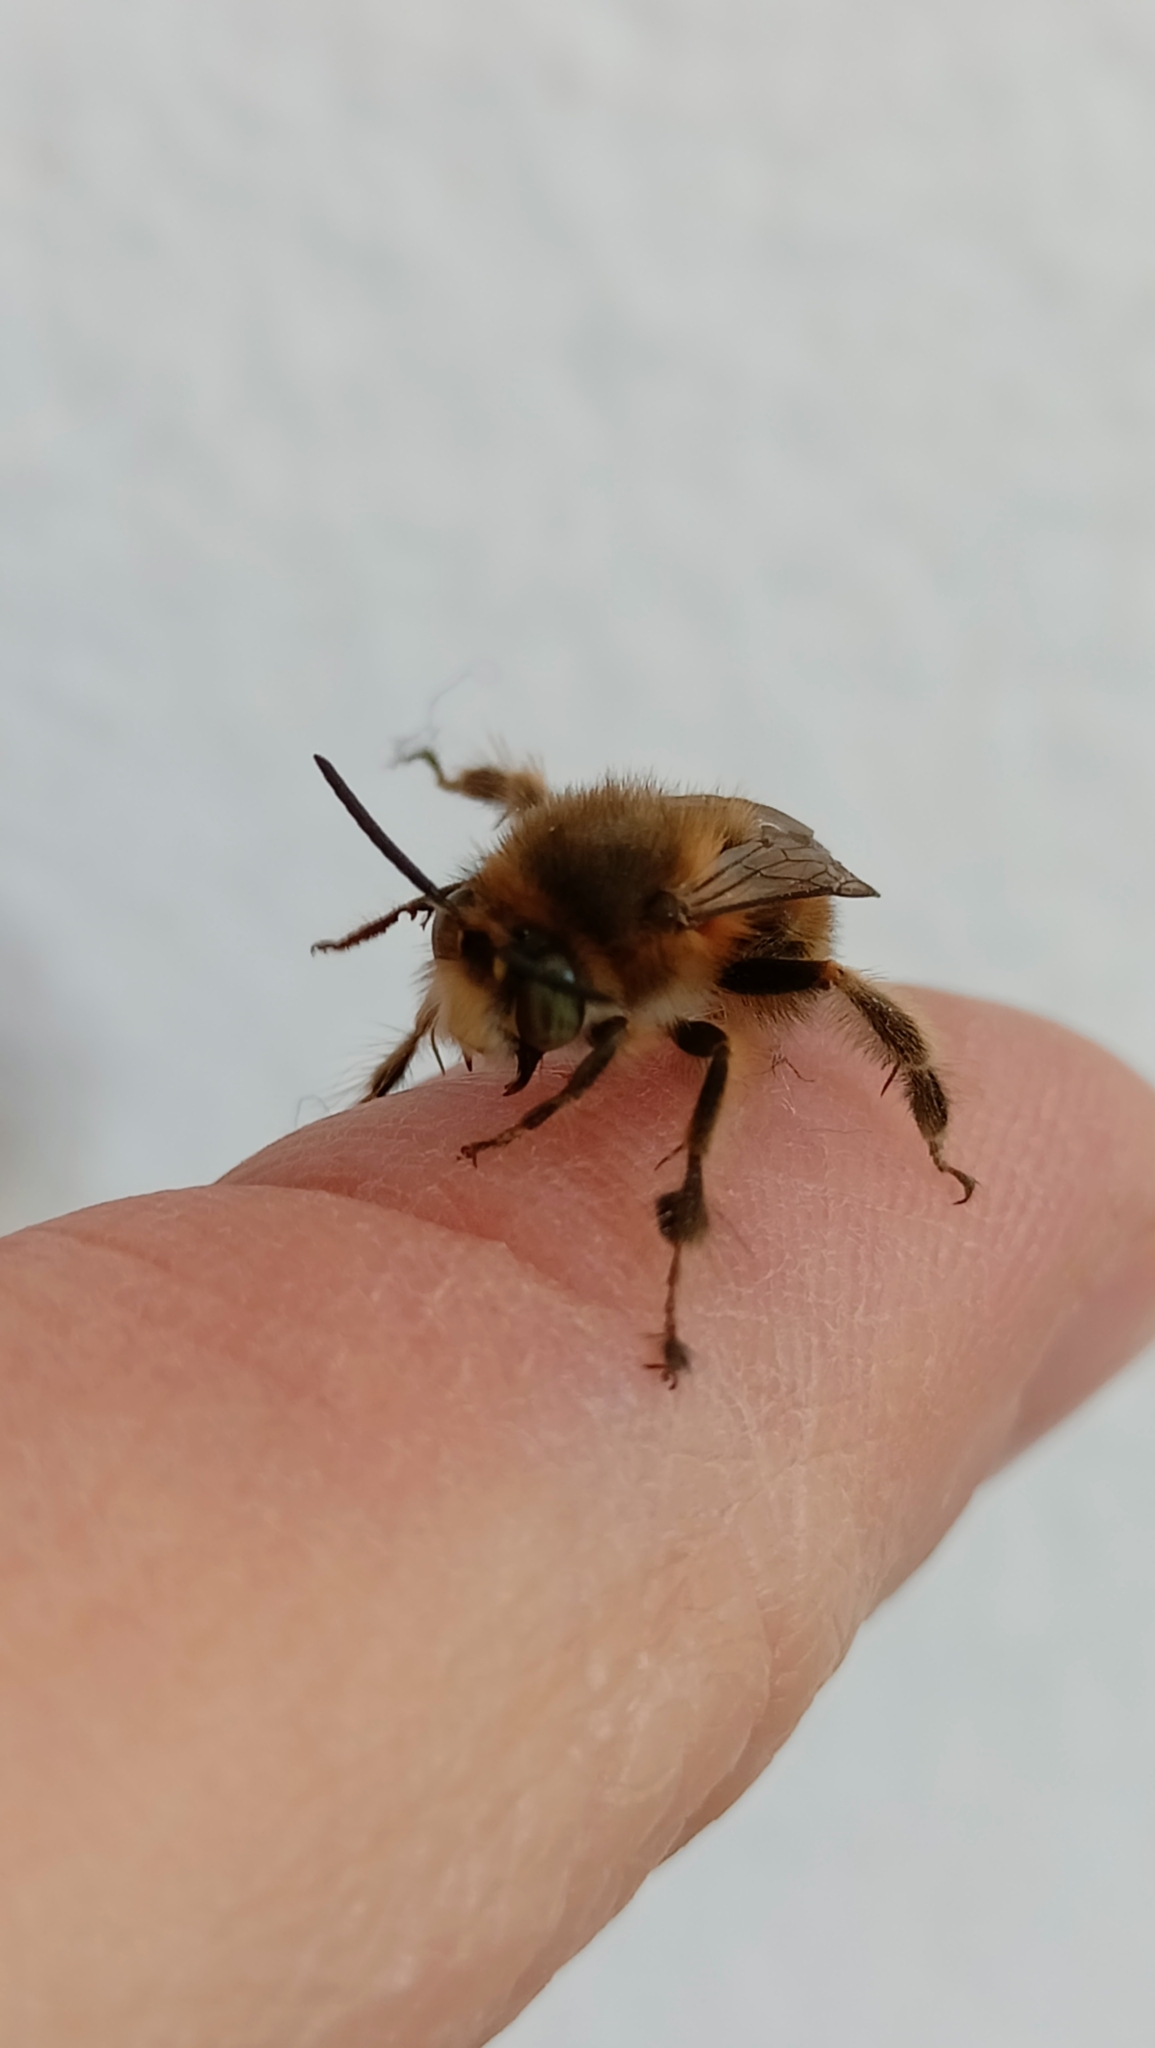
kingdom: Animalia
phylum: Arthropoda
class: Insecta
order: Hymenoptera
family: Apidae
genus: Anthophora
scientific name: Anthophora crinipes
